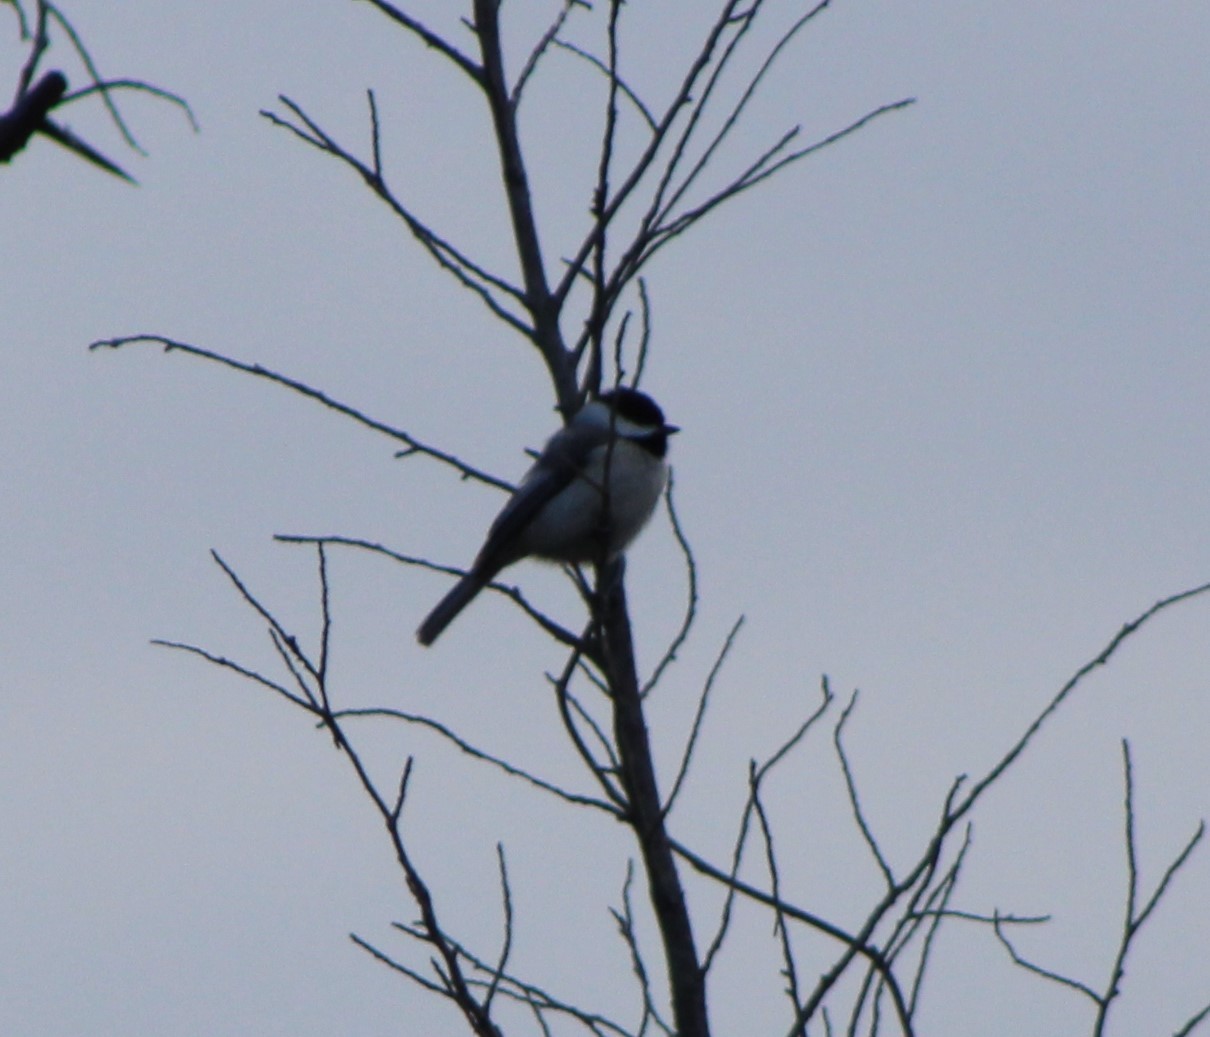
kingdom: Animalia
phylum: Chordata
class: Aves
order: Passeriformes
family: Paridae
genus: Poecile
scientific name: Poecile carolinensis
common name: Carolina chickadee
